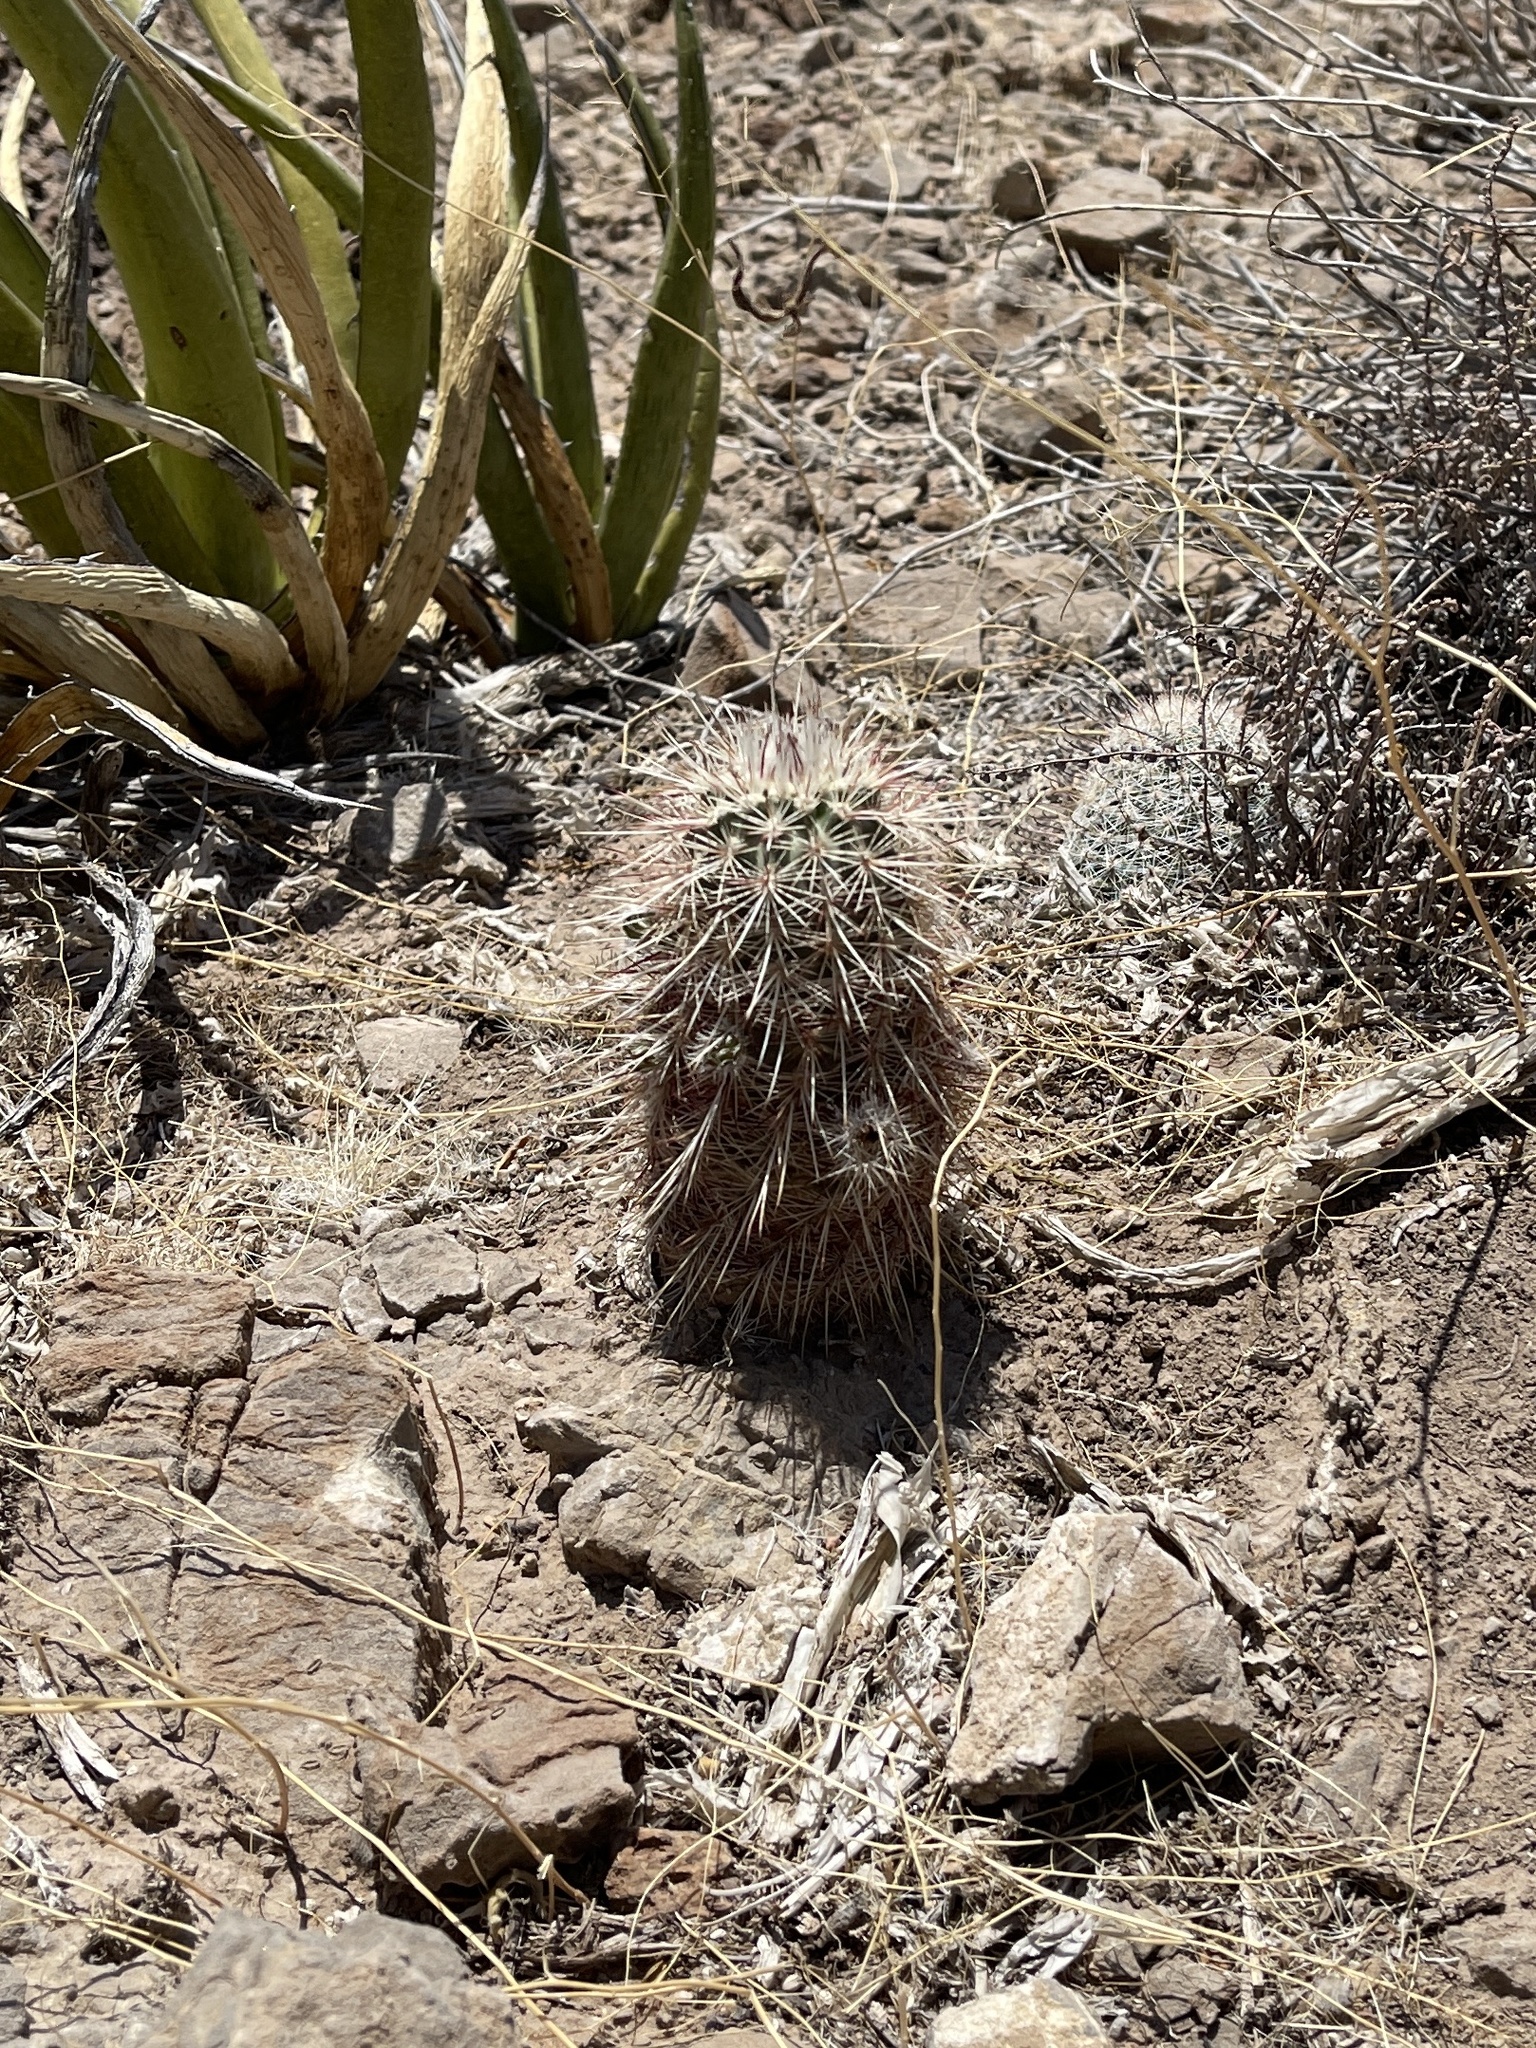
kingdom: Plantae
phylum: Tracheophyta
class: Magnoliopsida
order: Caryophyllales
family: Cactaceae
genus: Echinocereus
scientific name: Echinocereus viridiflorus
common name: Nylon hedgehog cactus
